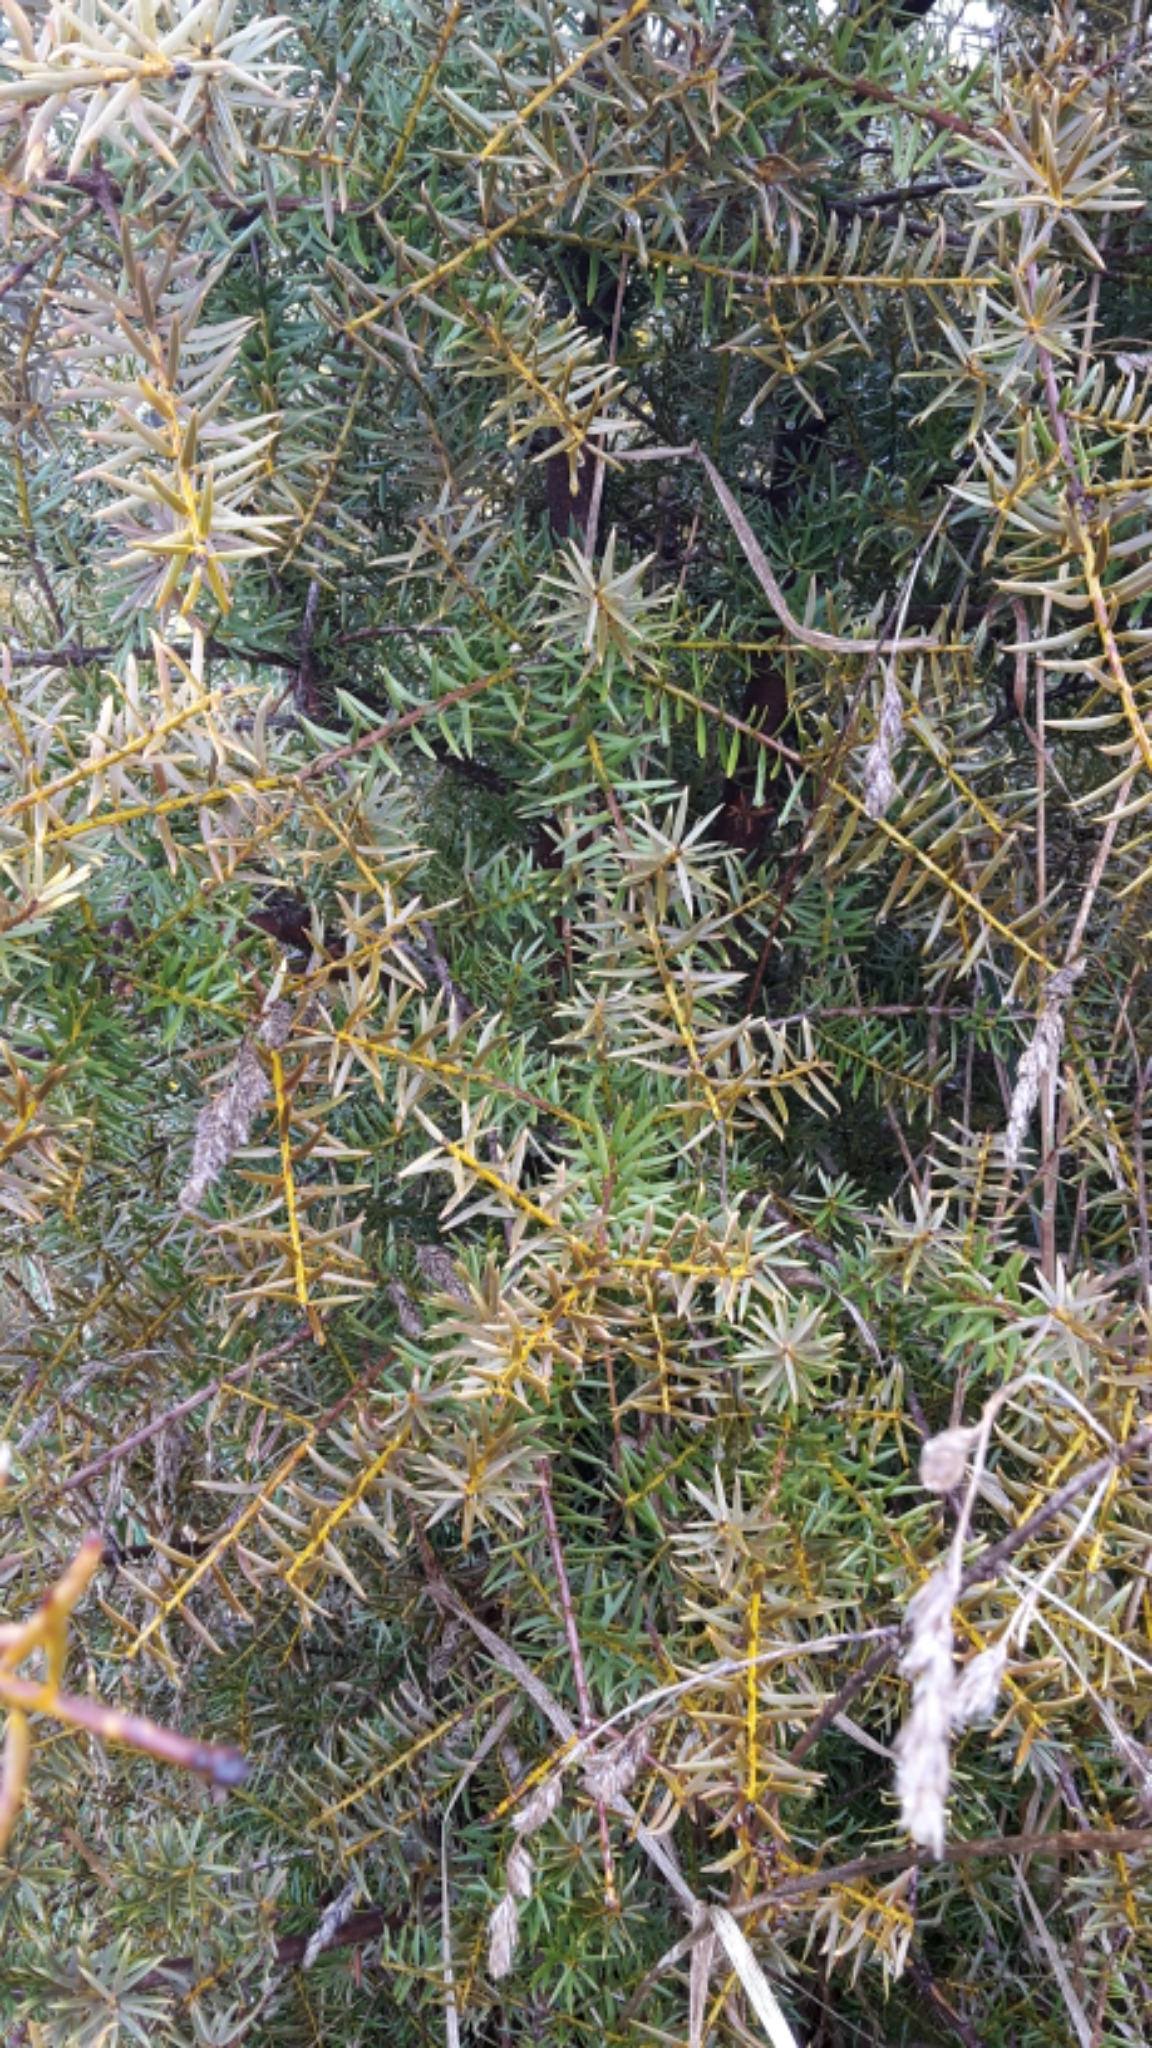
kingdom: Plantae
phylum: Tracheophyta
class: Pinopsida
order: Pinales
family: Podocarpaceae
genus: Podocarpus
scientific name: Podocarpus totara
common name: Totara
